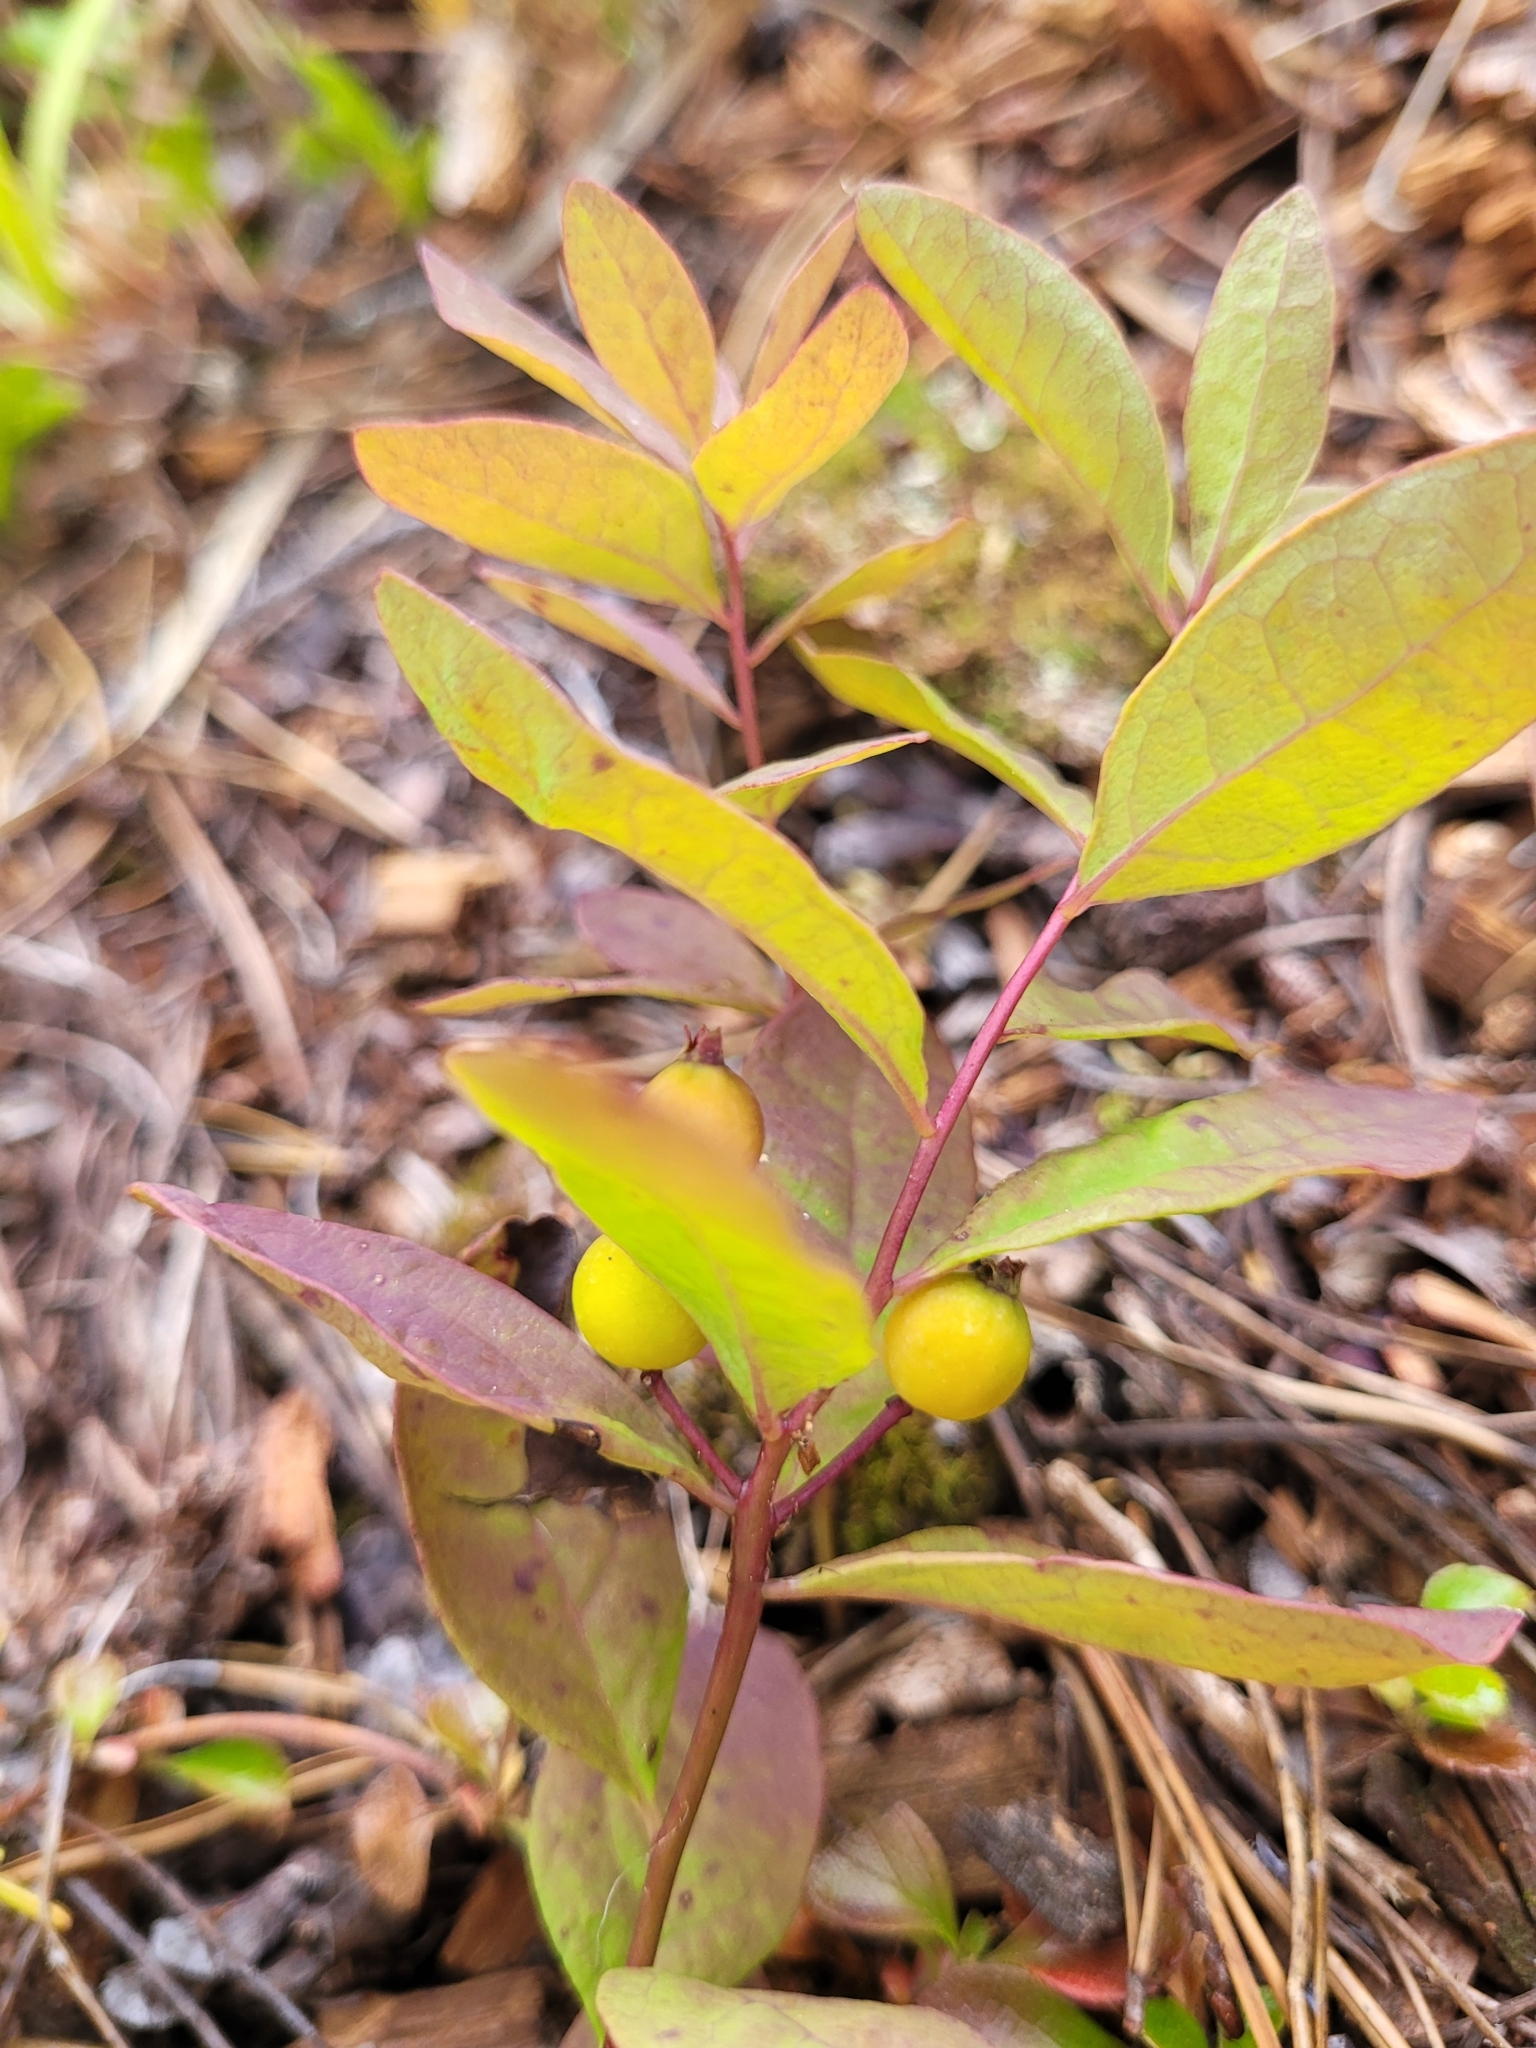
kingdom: Plantae
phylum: Tracheophyta
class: Magnoliopsida
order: Santalales
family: Comandraceae
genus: Geocaulon
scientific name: Geocaulon lividum
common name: Earthberry
